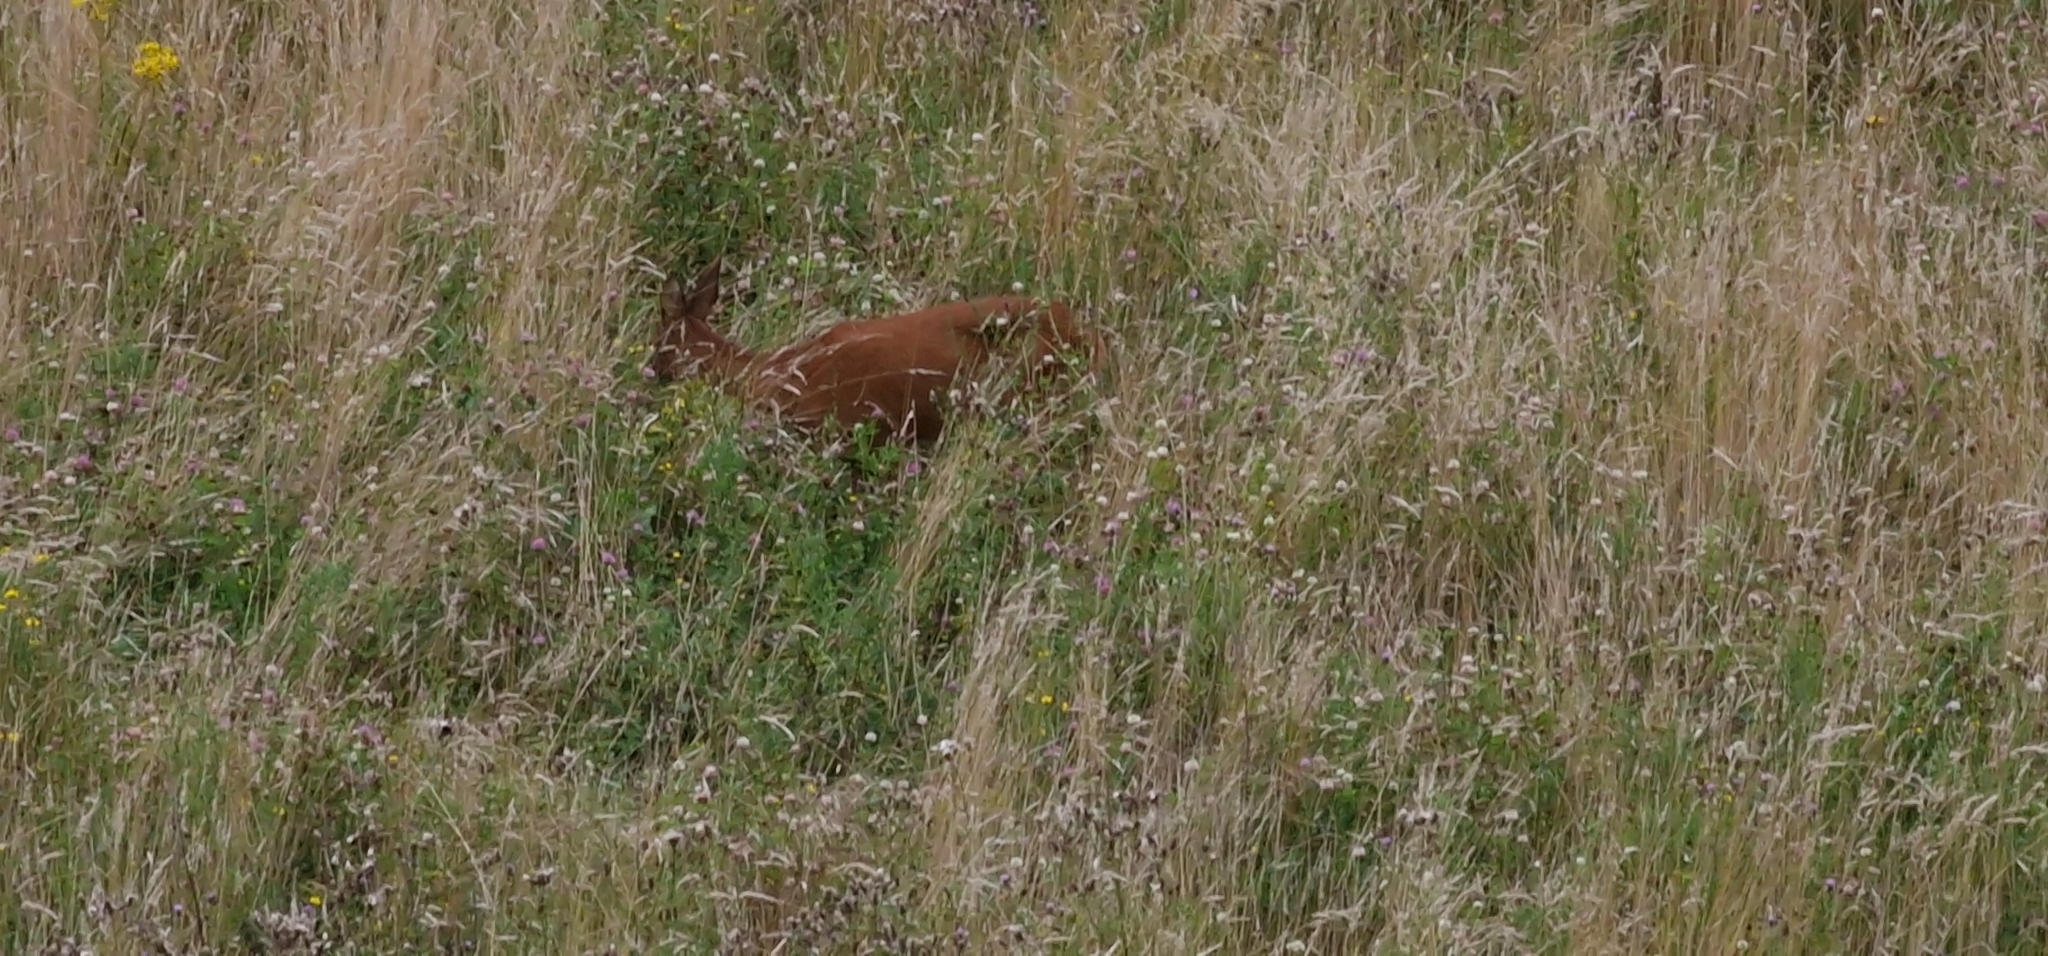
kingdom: Animalia
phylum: Chordata
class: Mammalia
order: Artiodactyla
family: Cervidae
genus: Capreolus
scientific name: Capreolus capreolus
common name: Western roe deer
